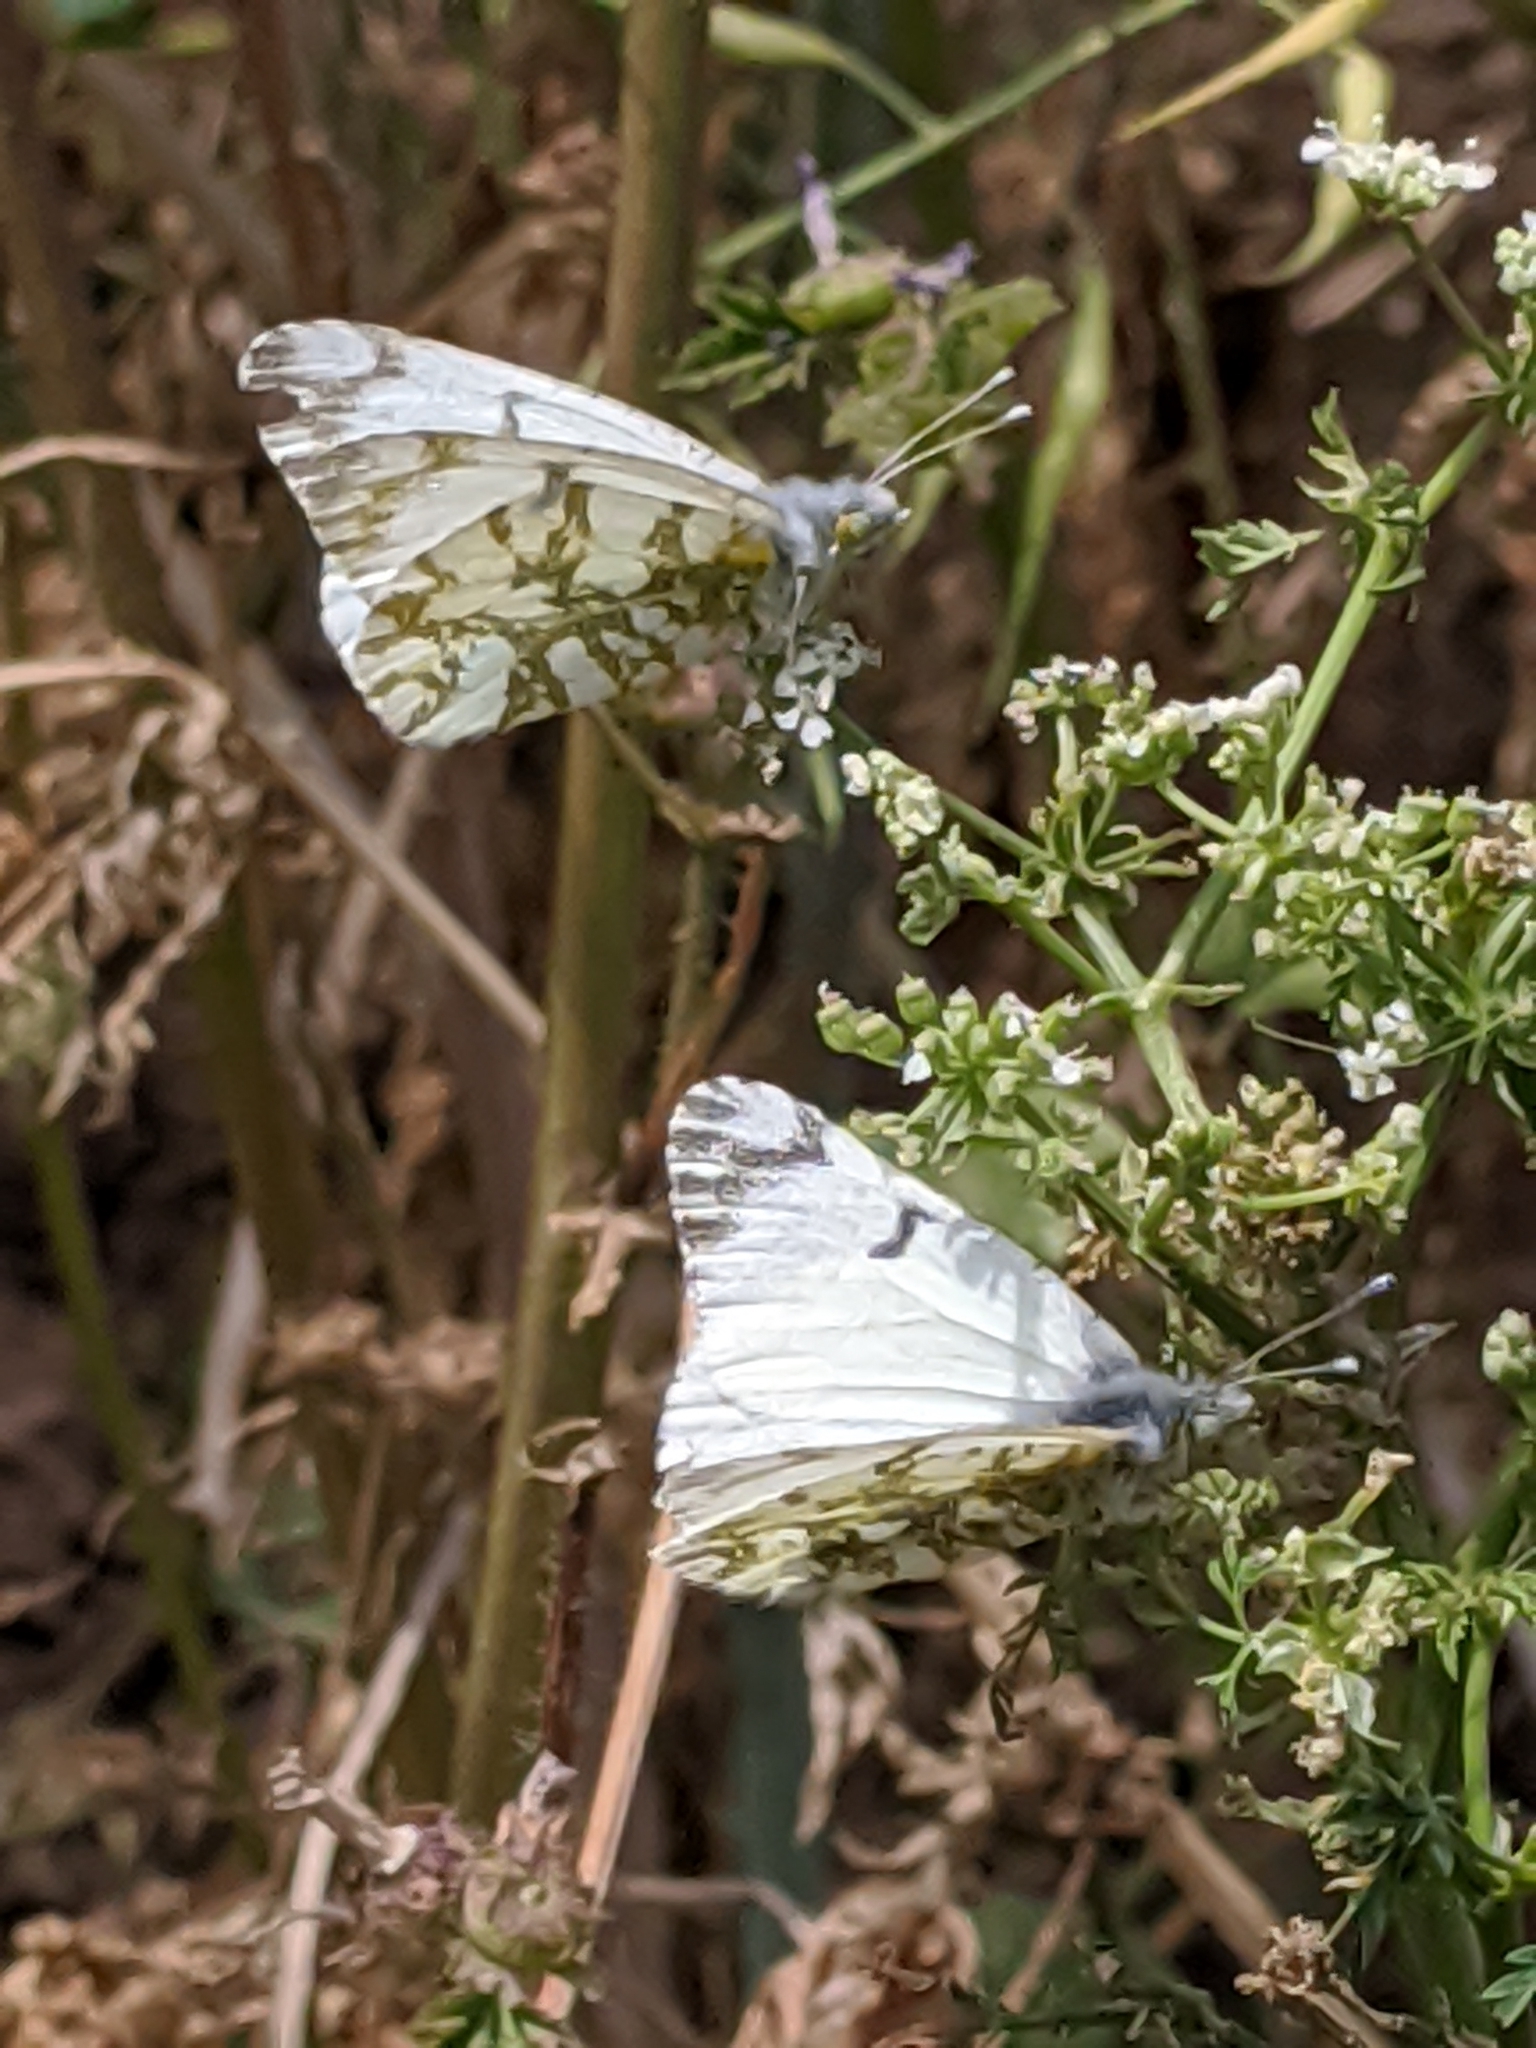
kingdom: Animalia
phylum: Arthropoda
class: Insecta
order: Lepidoptera
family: Pieridae
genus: Euchloe
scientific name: Euchloe ausonides
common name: Creamy marblewing
